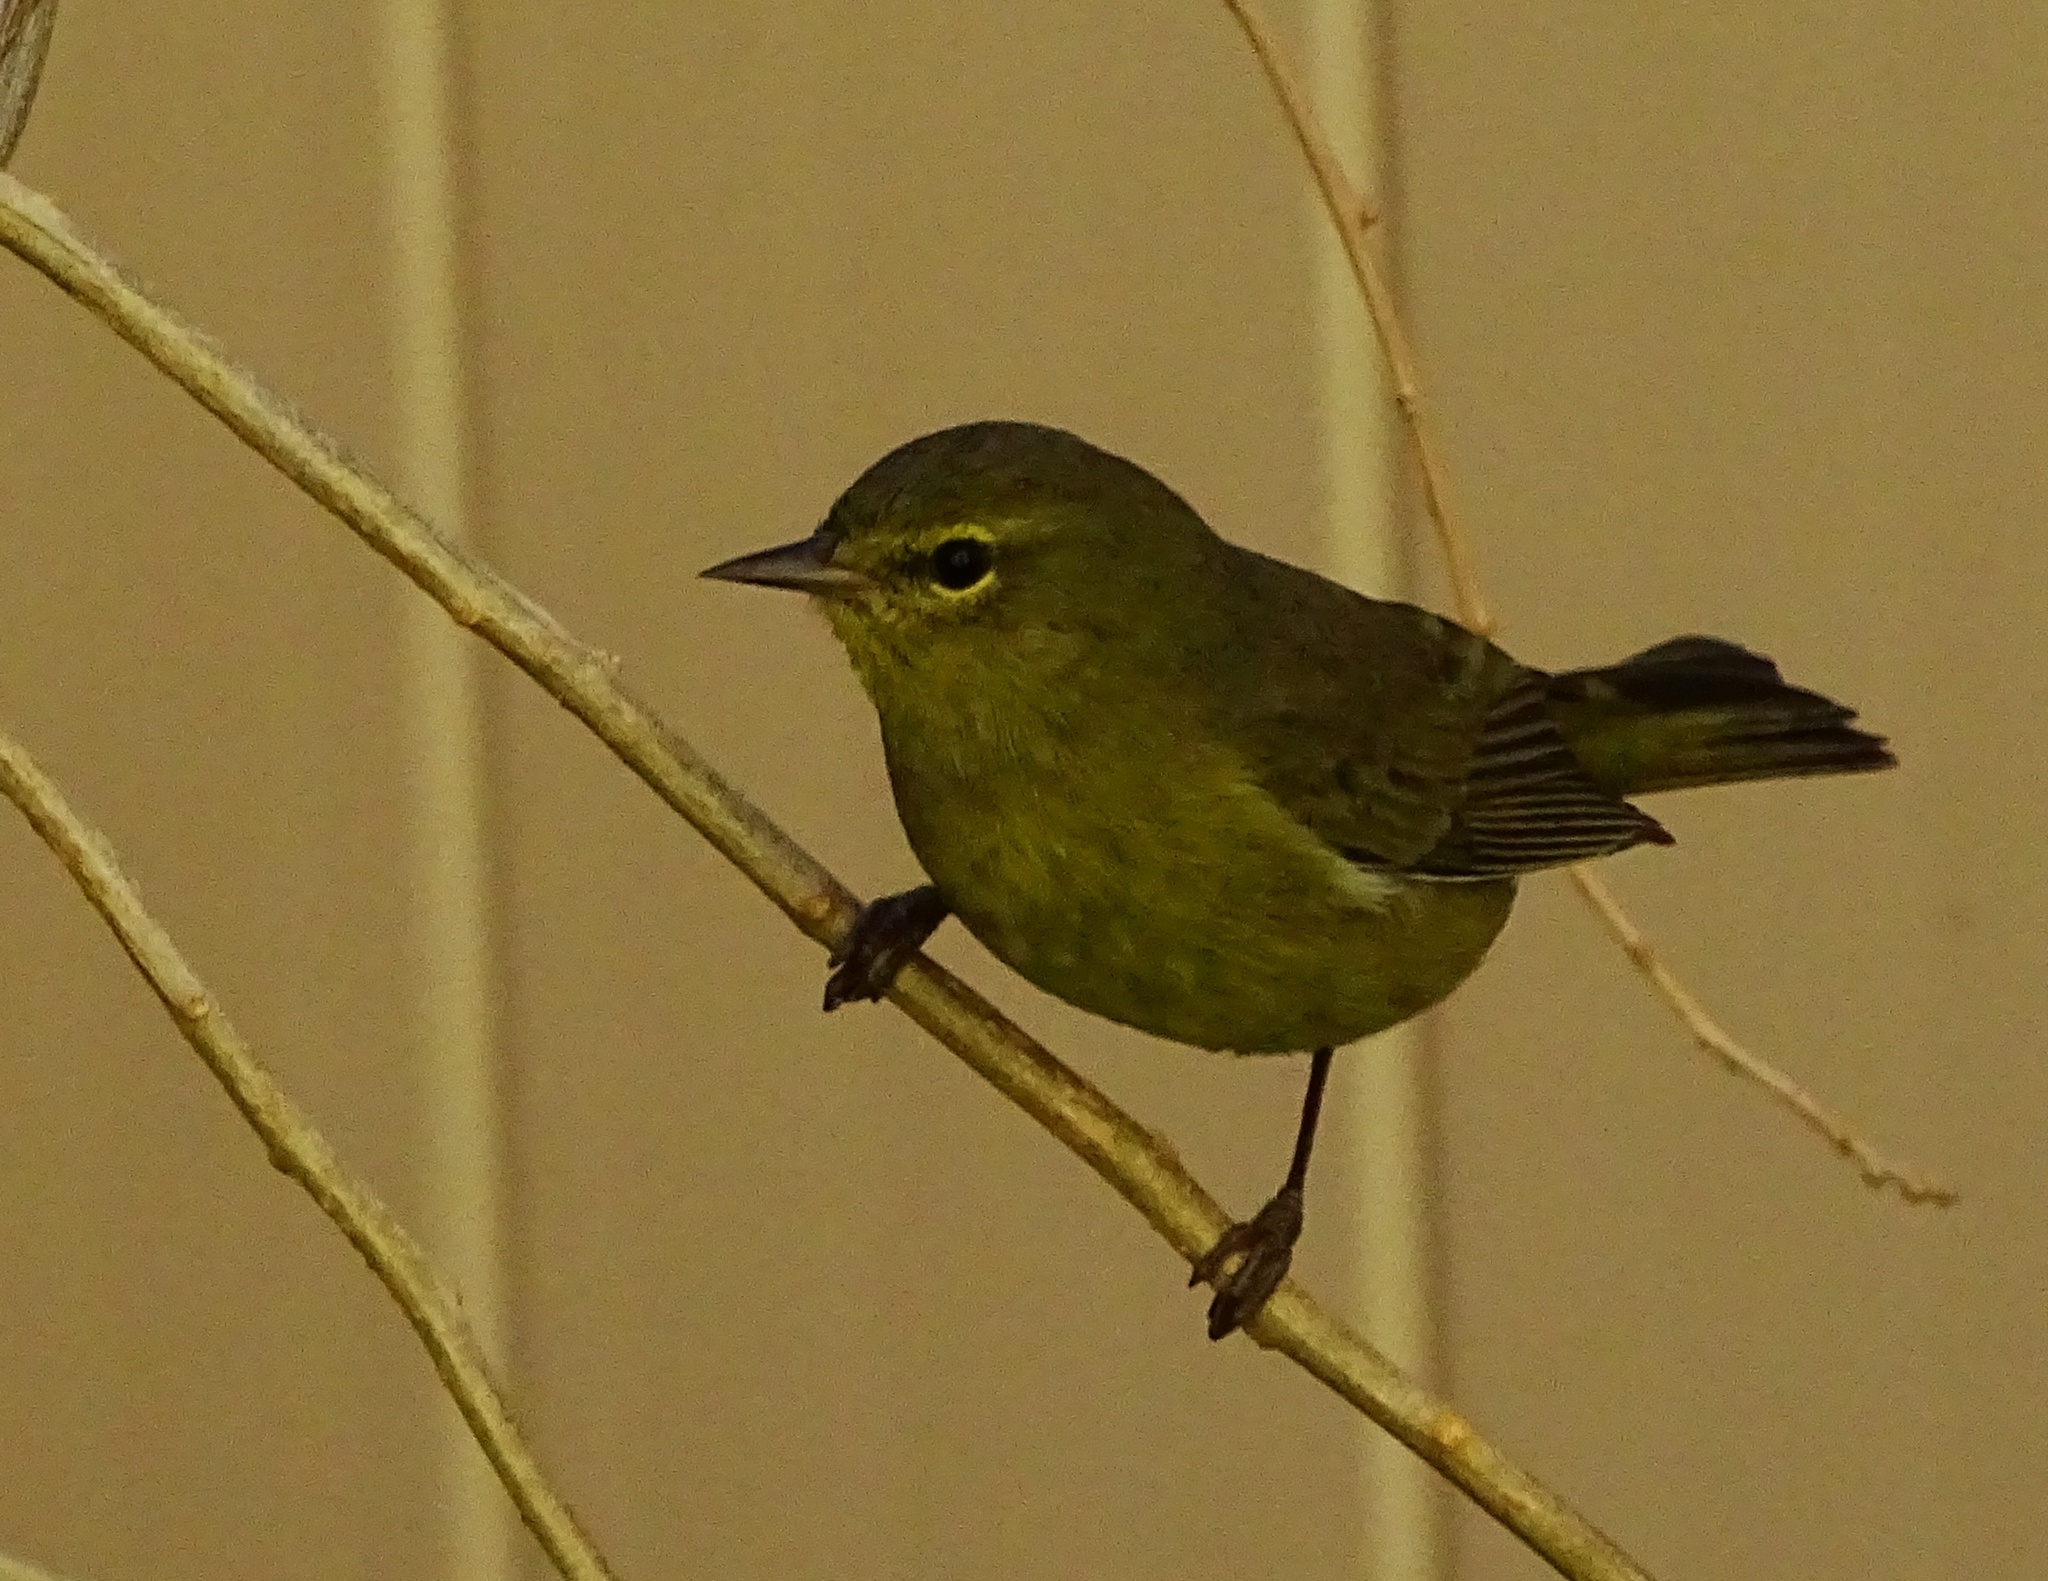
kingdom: Animalia
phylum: Chordata
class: Aves
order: Passeriformes
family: Parulidae
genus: Leiothlypis
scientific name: Leiothlypis celata
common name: Orange-crowned warbler
